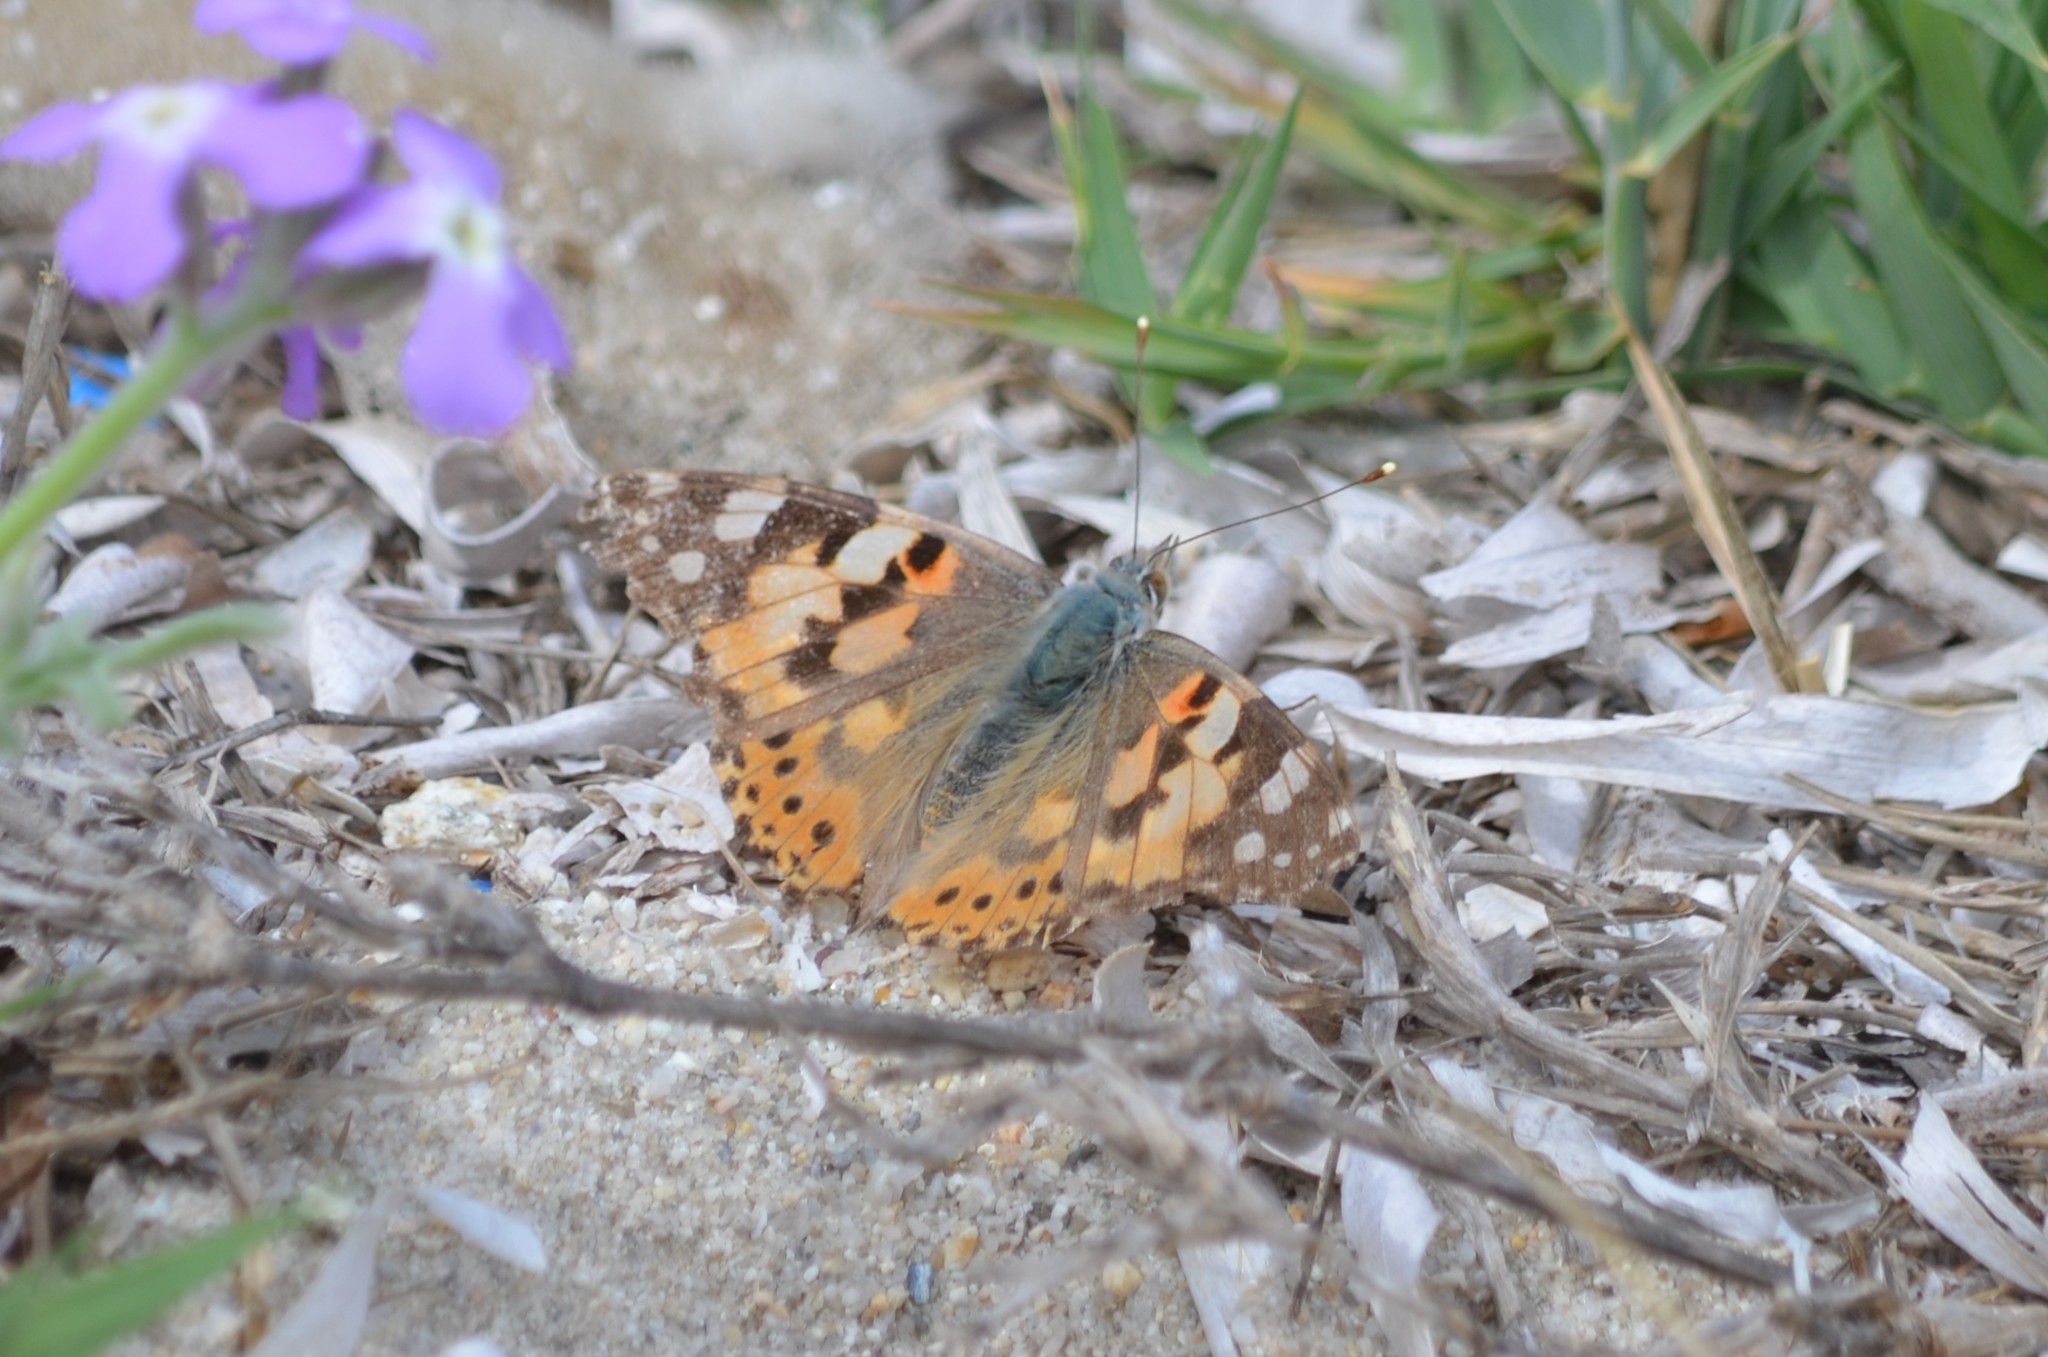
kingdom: Animalia
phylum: Arthropoda
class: Insecta
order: Lepidoptera
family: Nymphalidae
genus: Vanessa
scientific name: Vanessa cardui
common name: Painted lady
